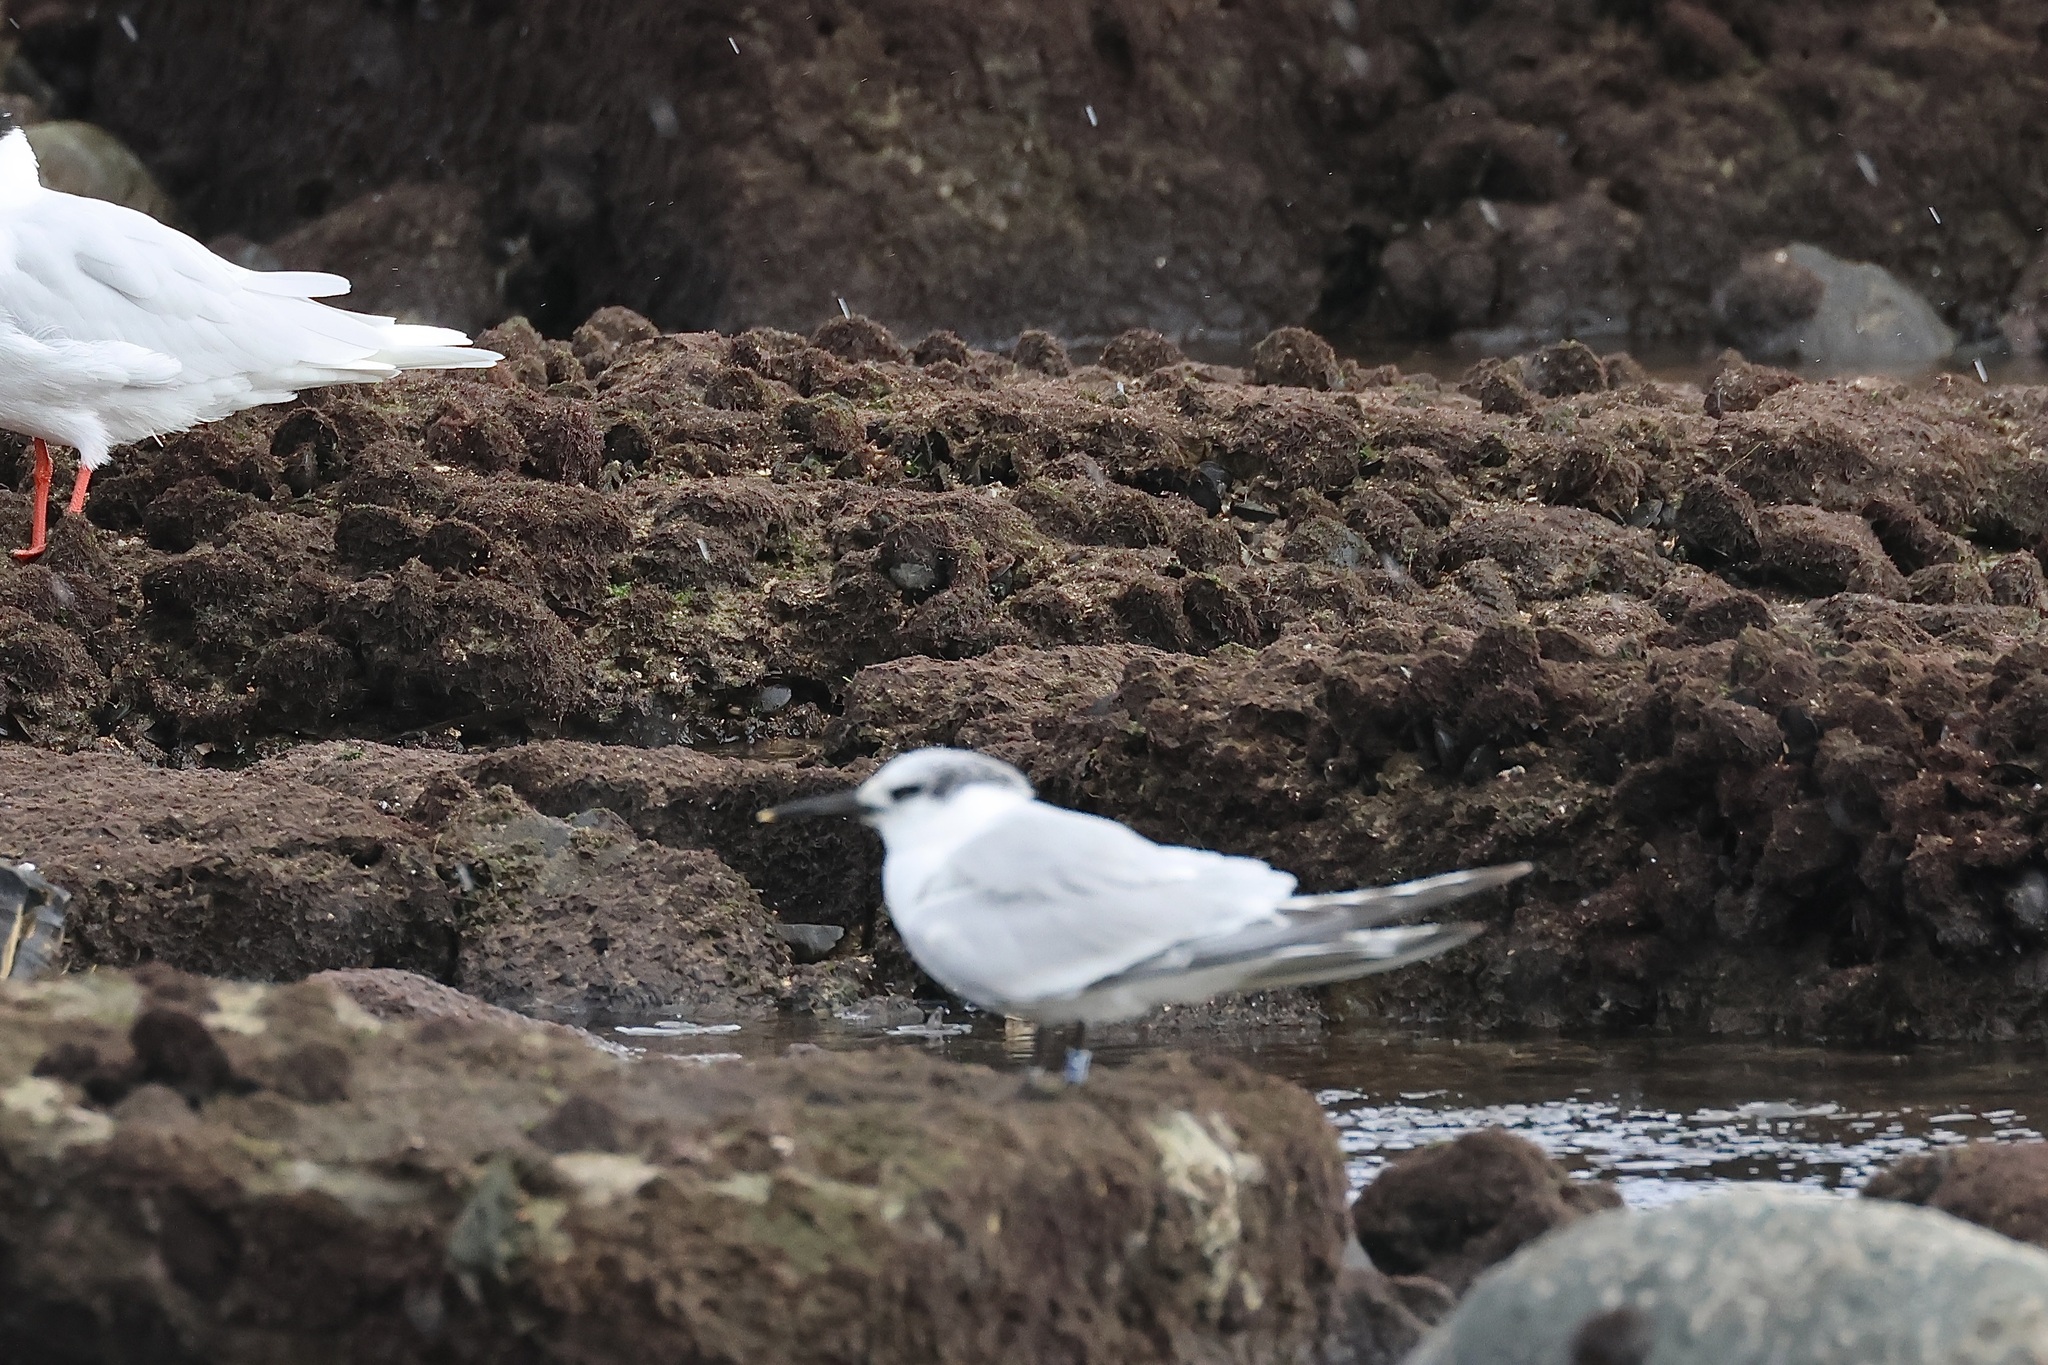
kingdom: Animalia
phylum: Chordata
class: Aves
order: Charadriiformes
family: Laridae
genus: Thalasseus
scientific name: Thalasseus sandvicensis
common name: Sandwich tern
